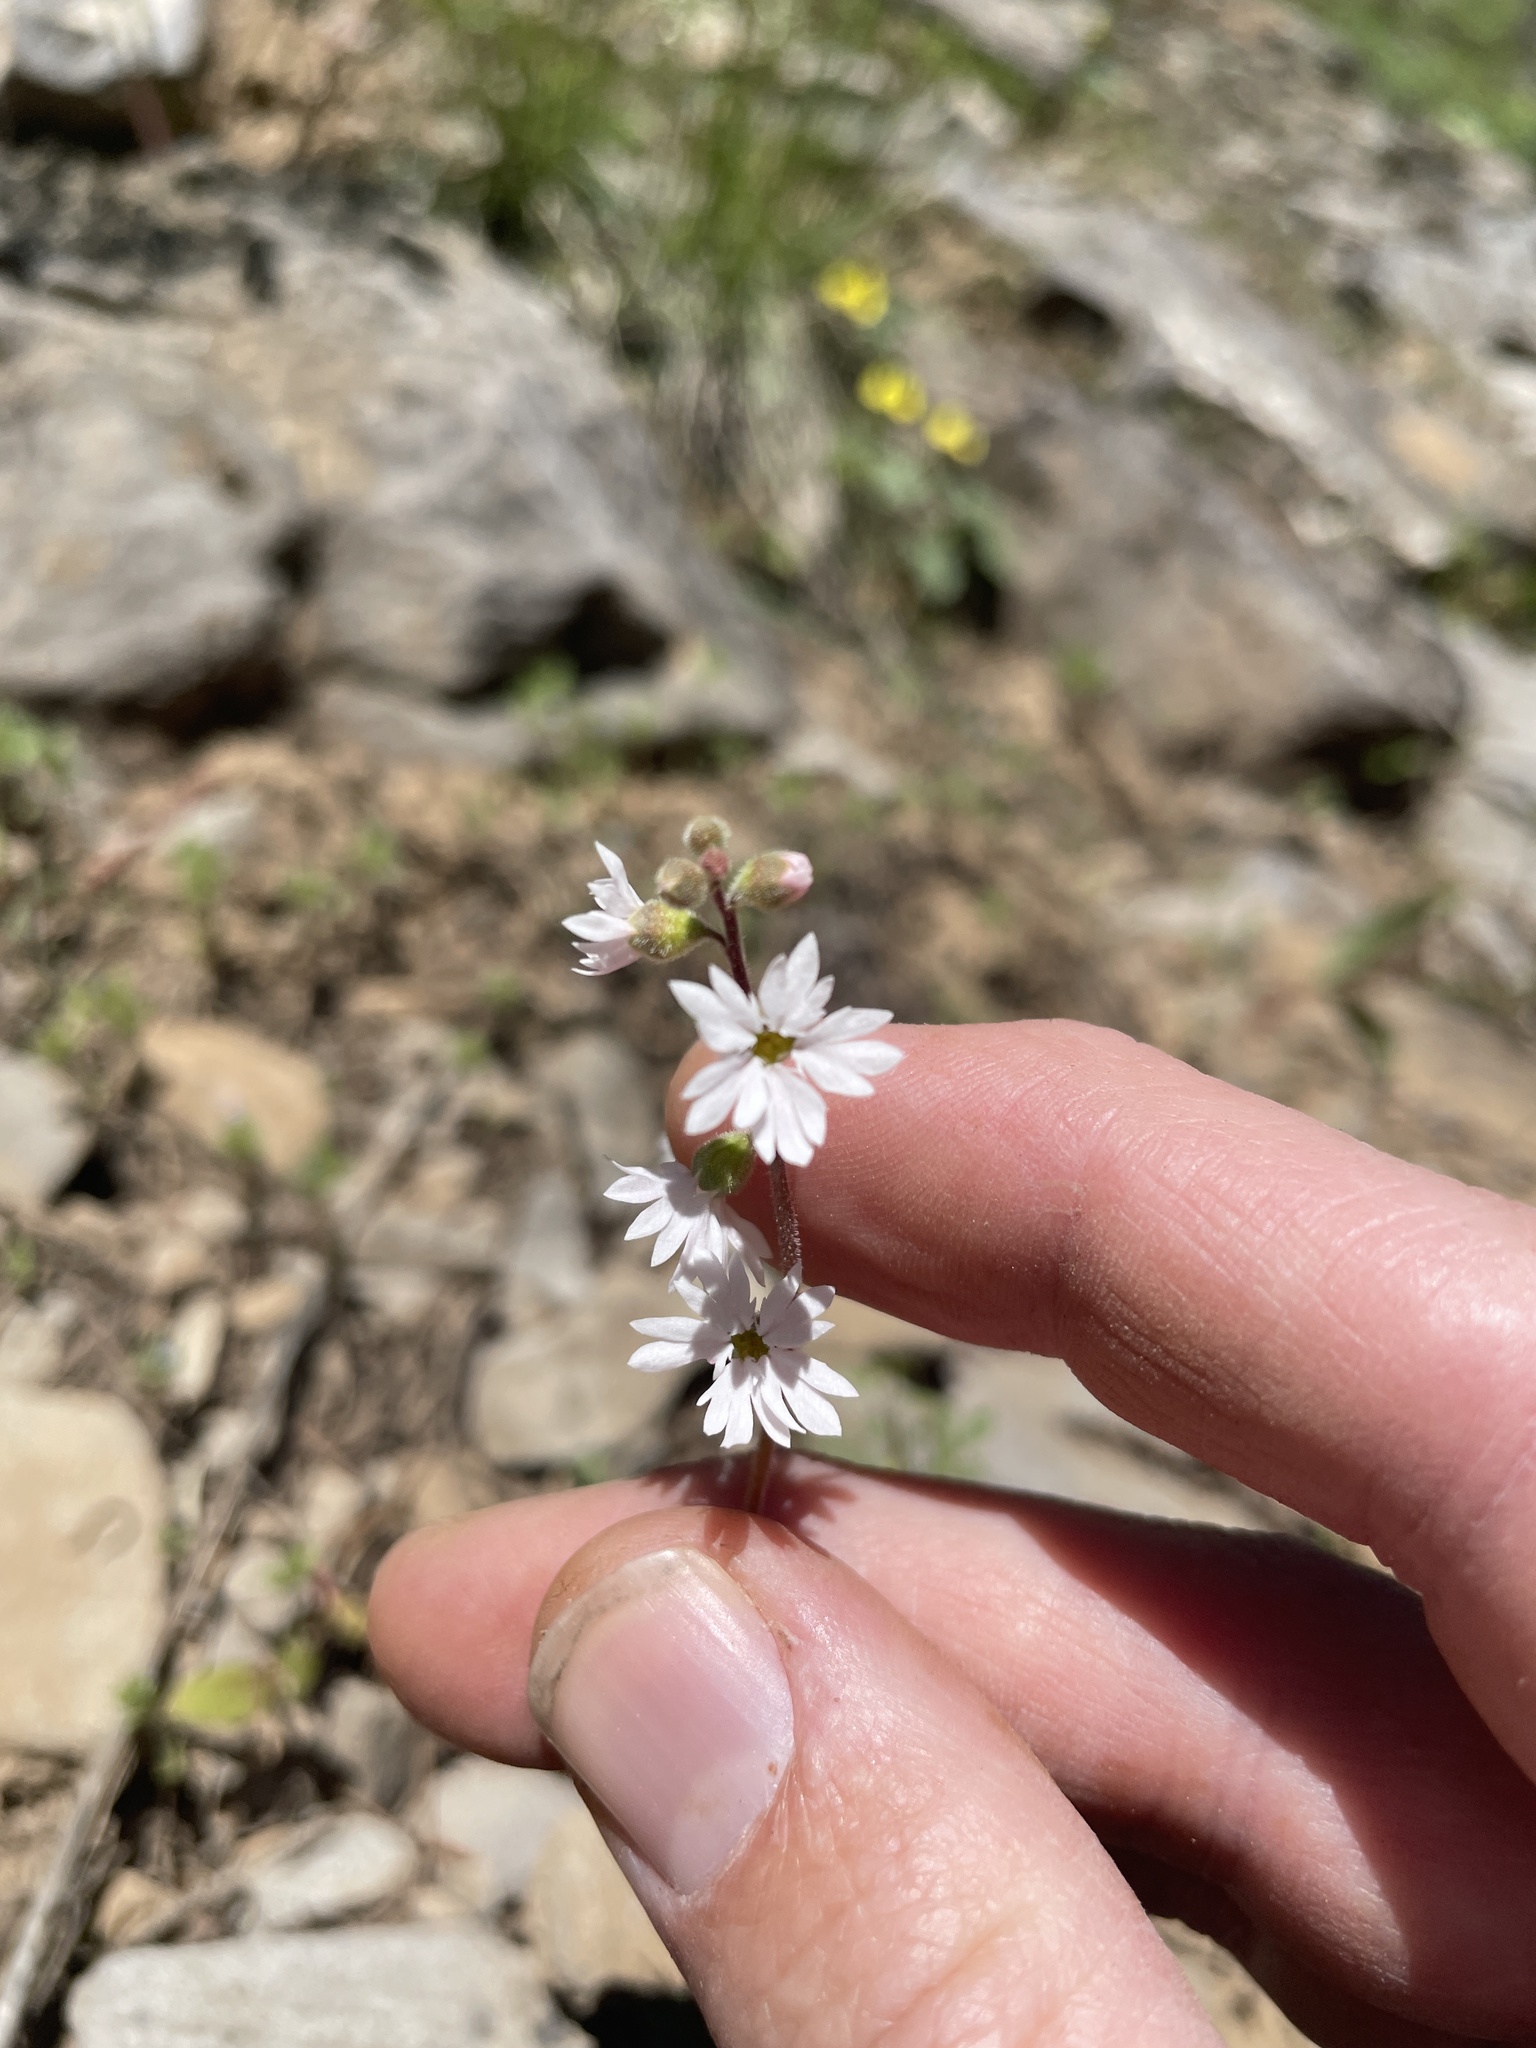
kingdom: Plantae
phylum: Tracheophyta
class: Magnoliopsida
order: Saxifragales
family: Saxifragaceae
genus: Lithophragma
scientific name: Lithophragma tenella
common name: Slender fringe-cup
